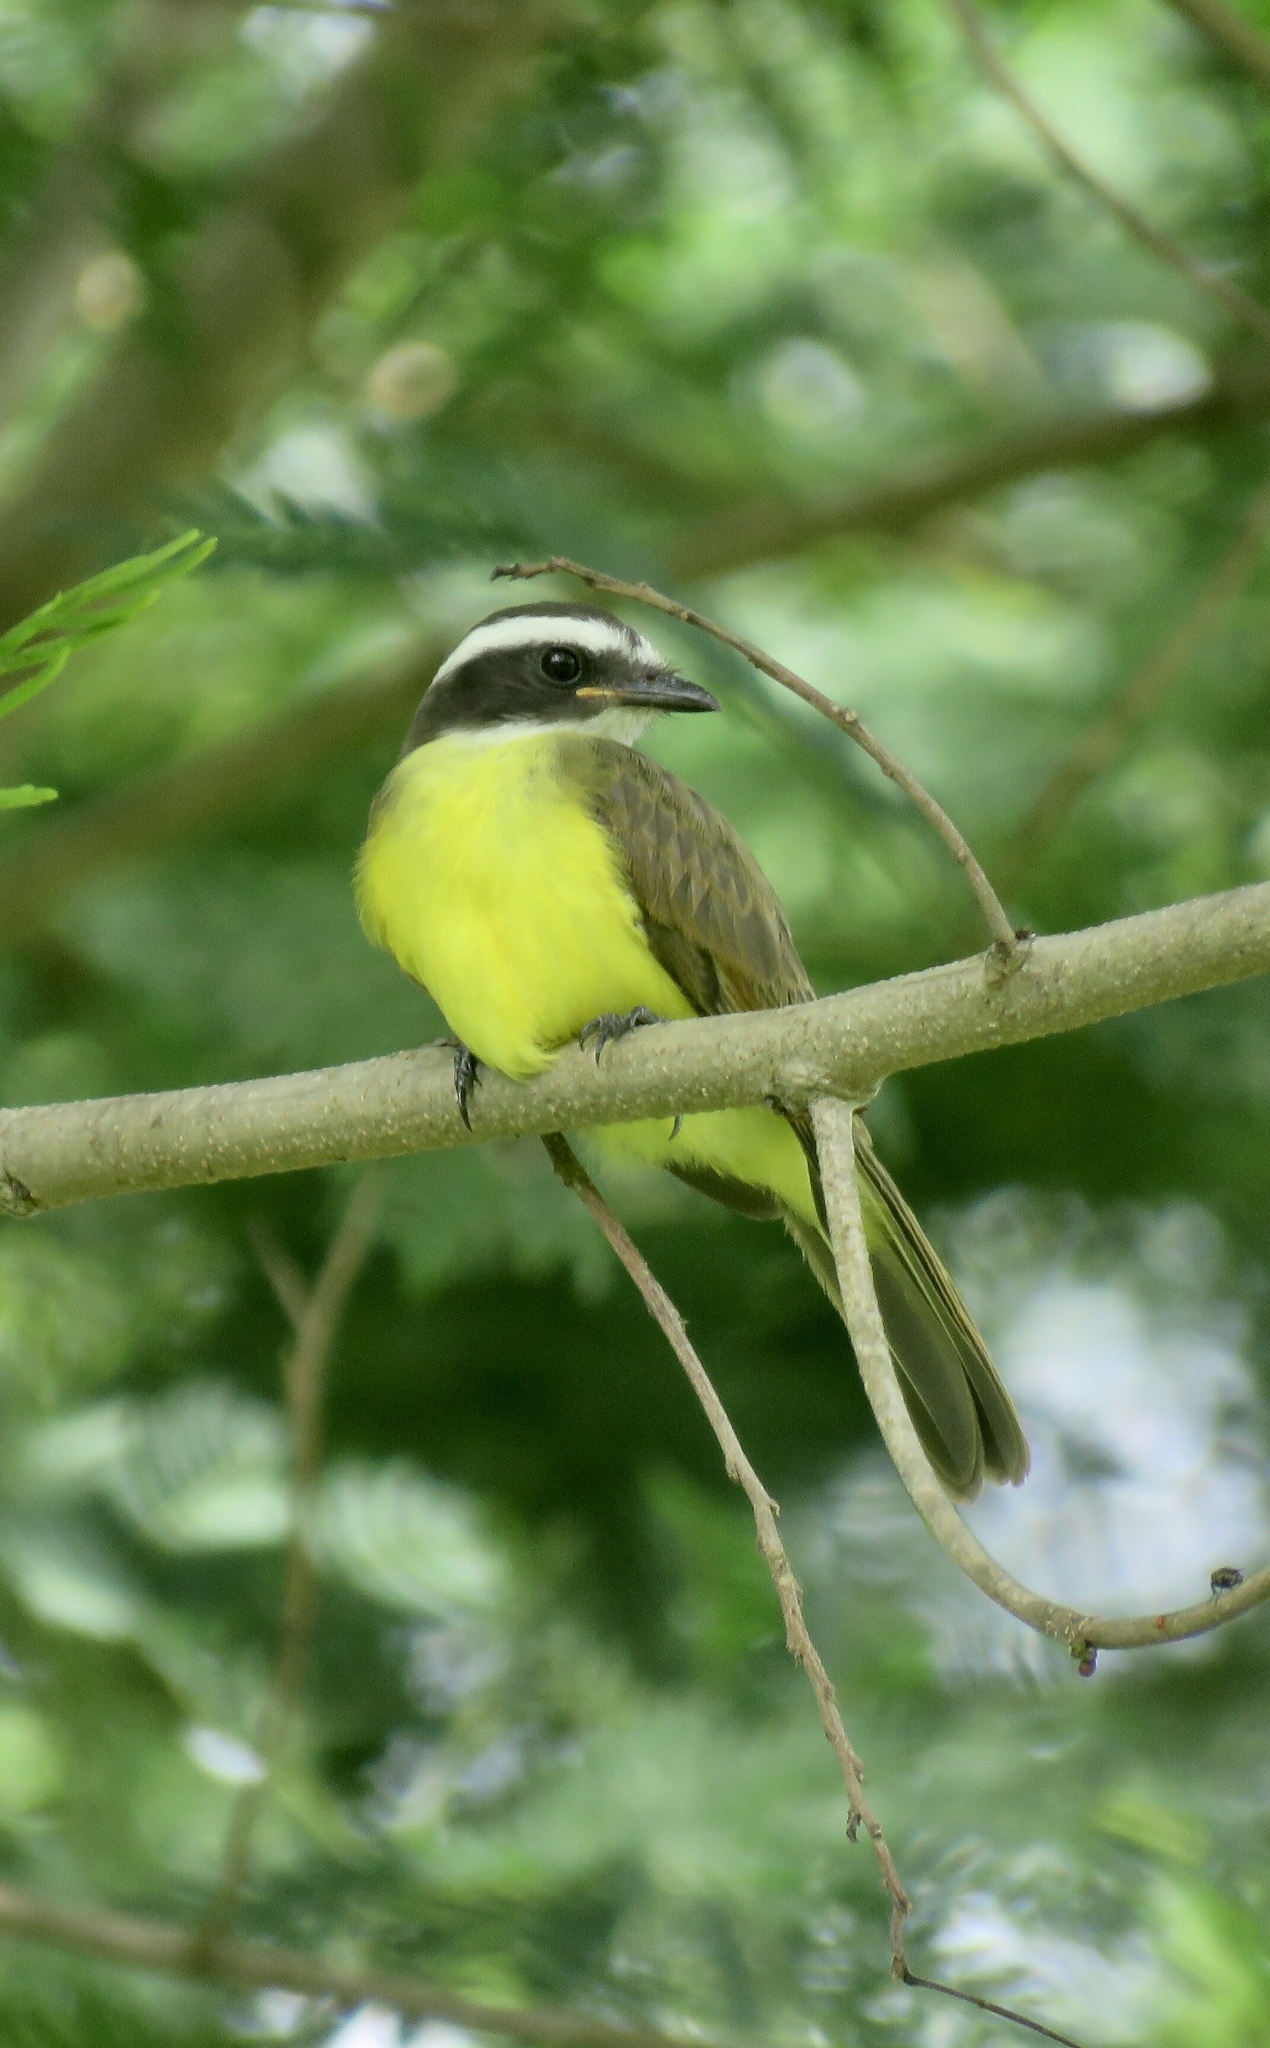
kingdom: Animalia
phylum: Chordata
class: Aves
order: Passeriformes
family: Tyrannidae
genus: Myiozetetes
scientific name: Myiozetetes cayanensis
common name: Rusty-margined flycatcher
